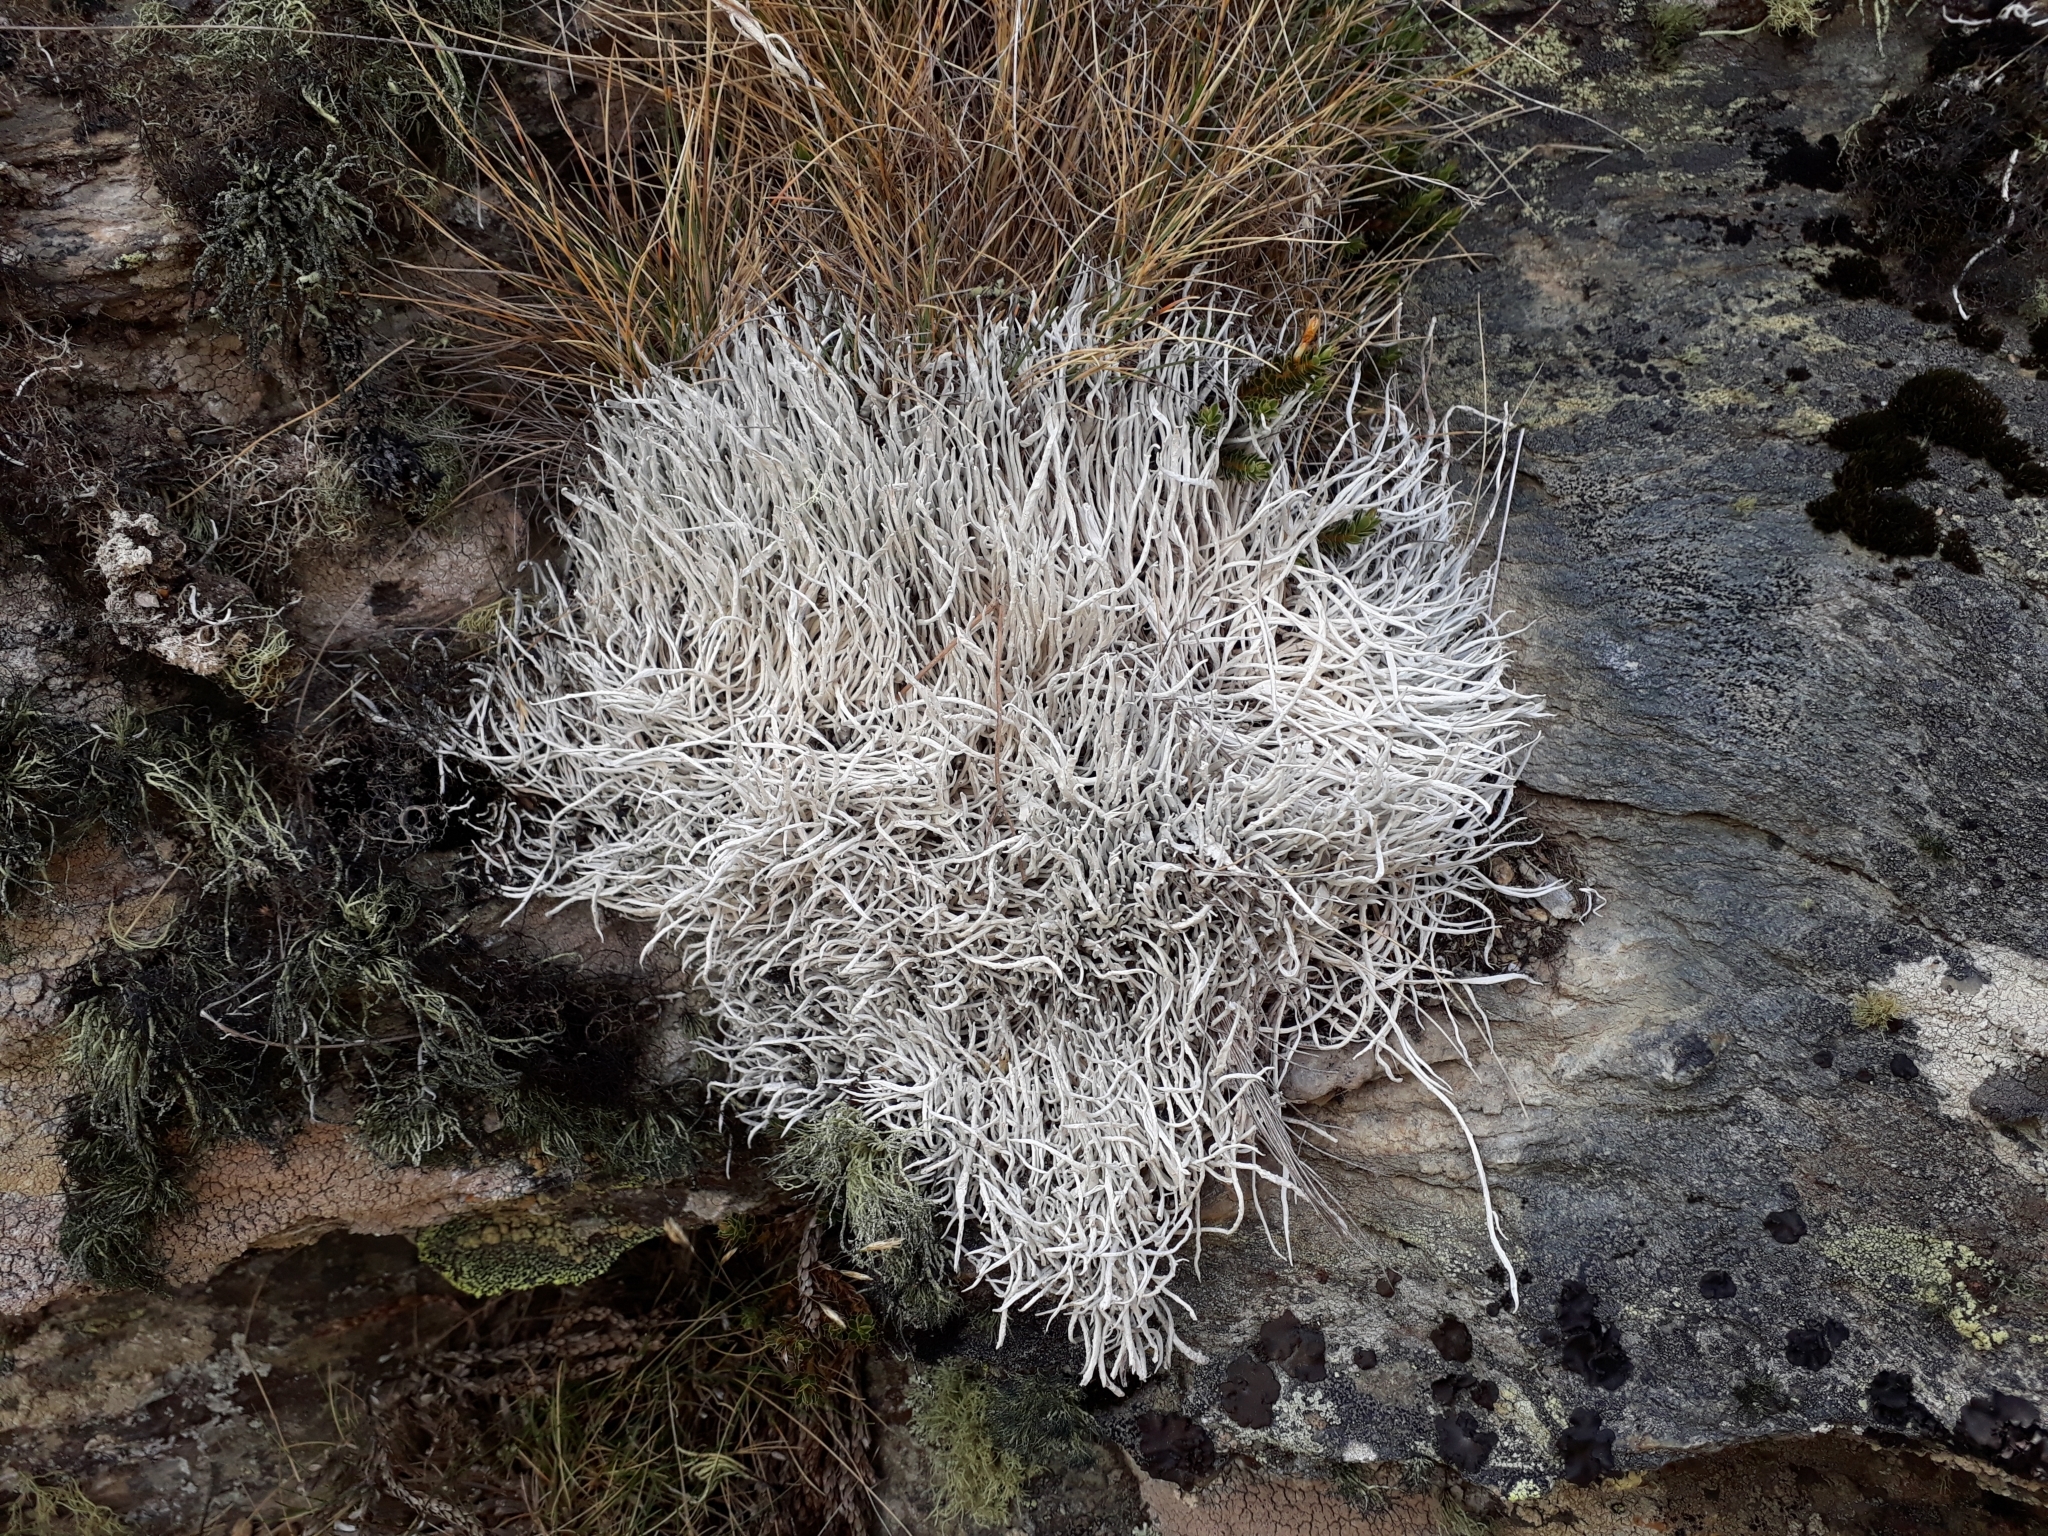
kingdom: Fungi
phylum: Ascomycota
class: Lecanoromycetes
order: Pertusariales
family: Icmadophilaceae
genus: Thamnolia
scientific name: Thamnolia vermicularis
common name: Whiteworm lichen
